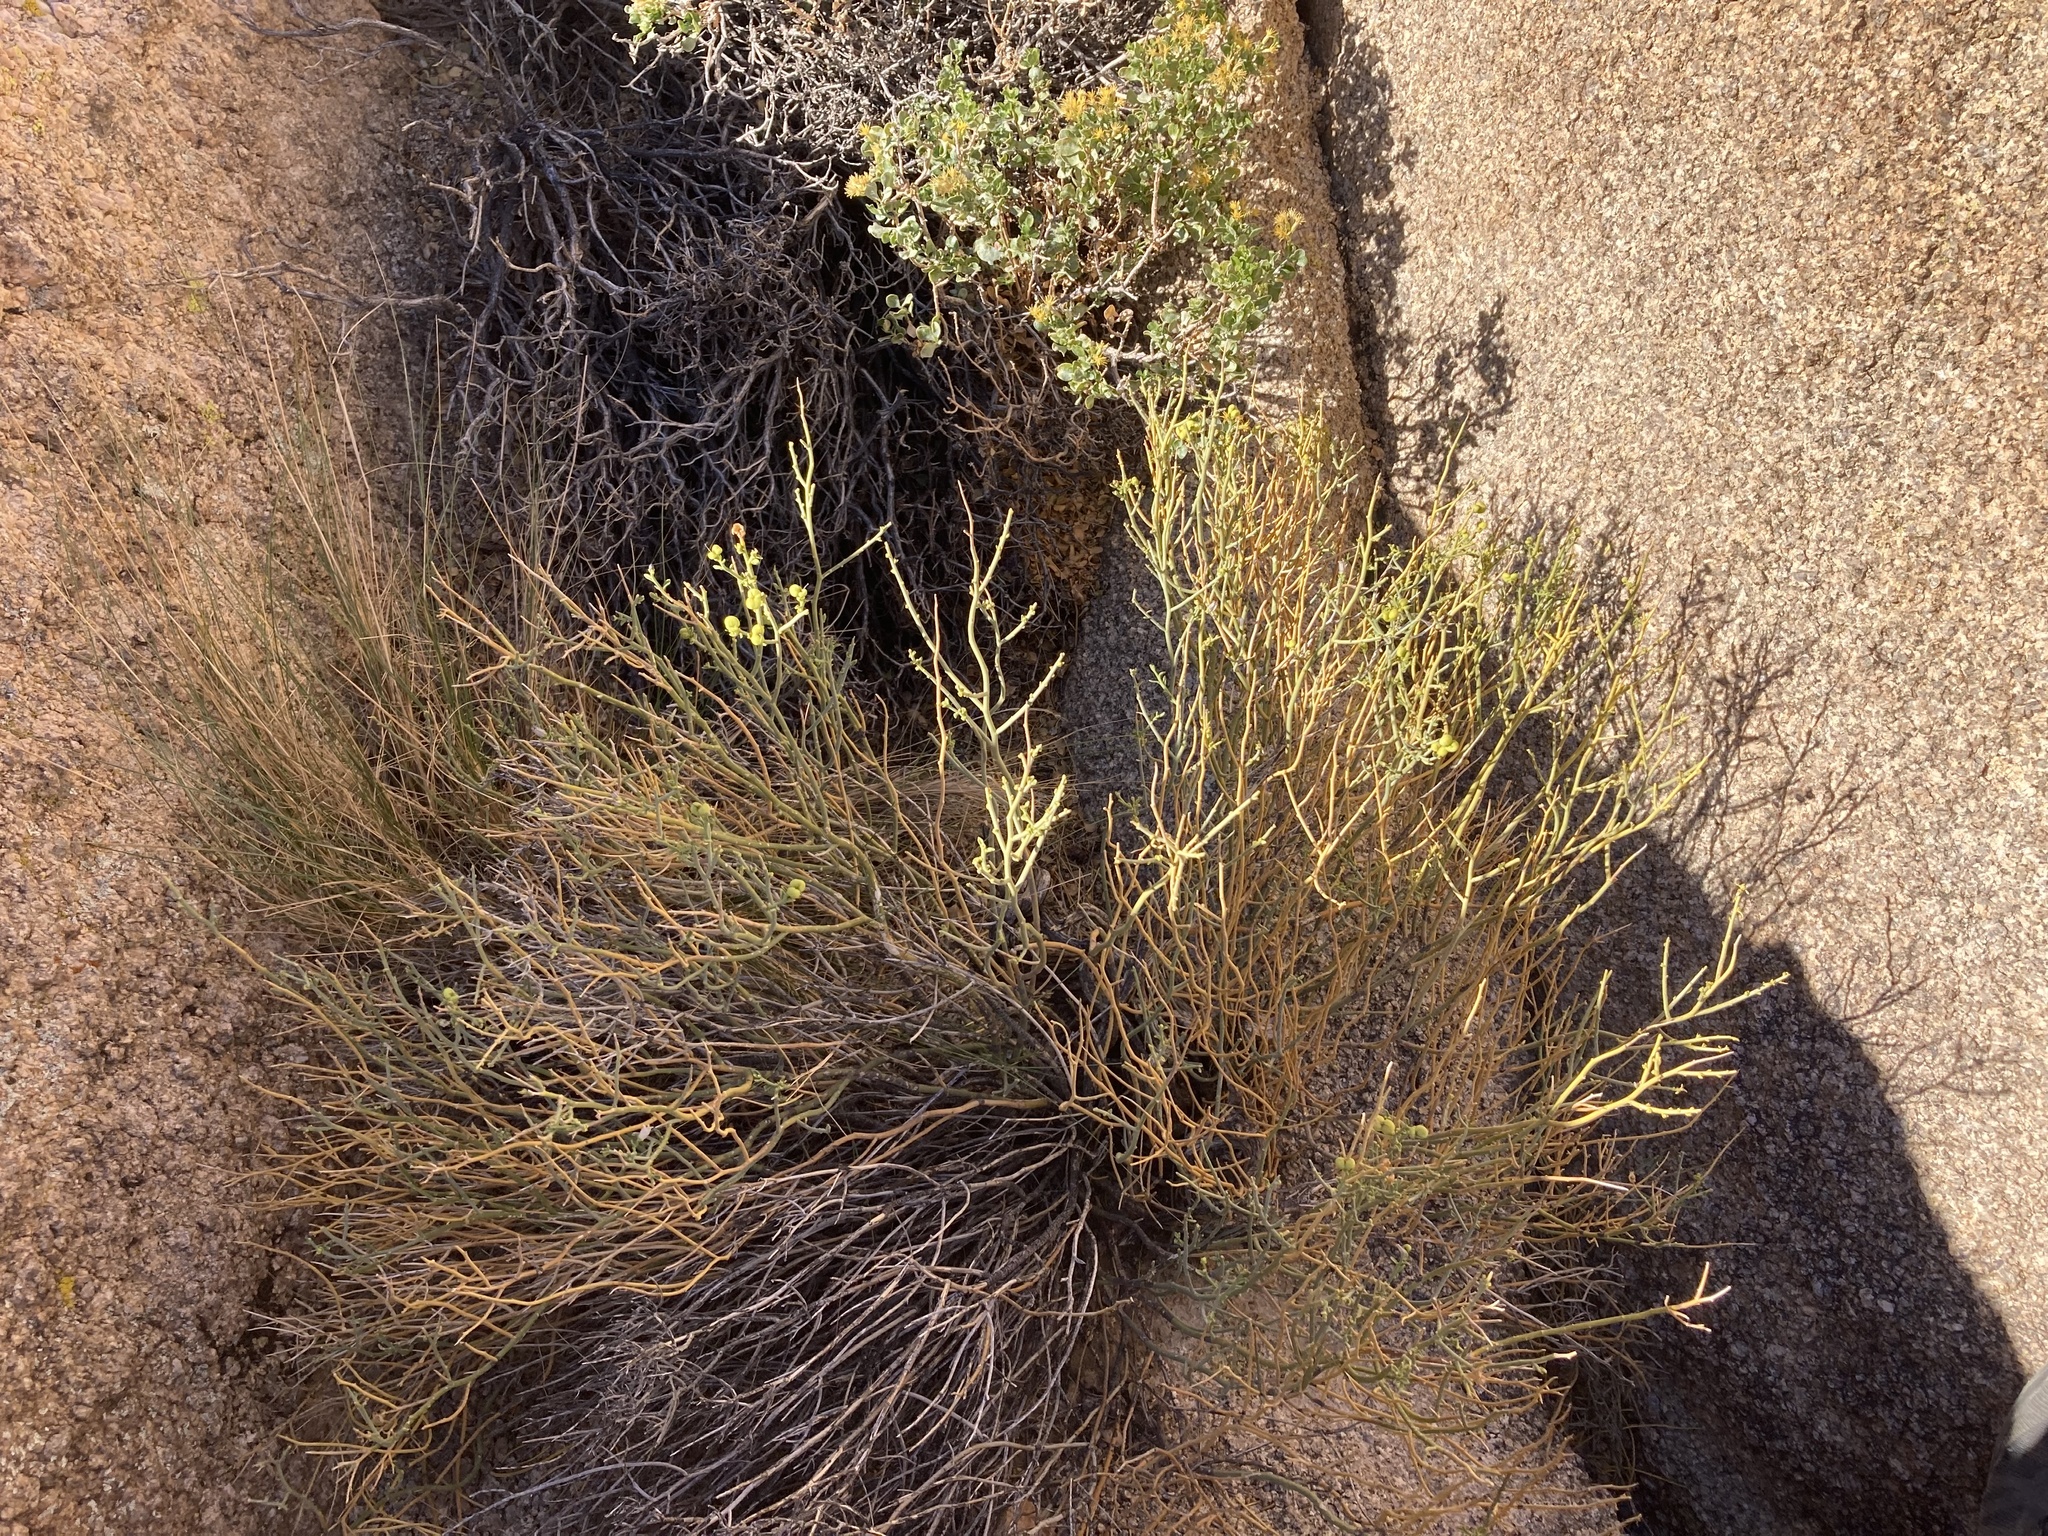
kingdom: Plantae
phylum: Tracheophyta
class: Magnoliopsida
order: Sapindales
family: Rutaceae
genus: Thamnosma
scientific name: Thamnosma montana
